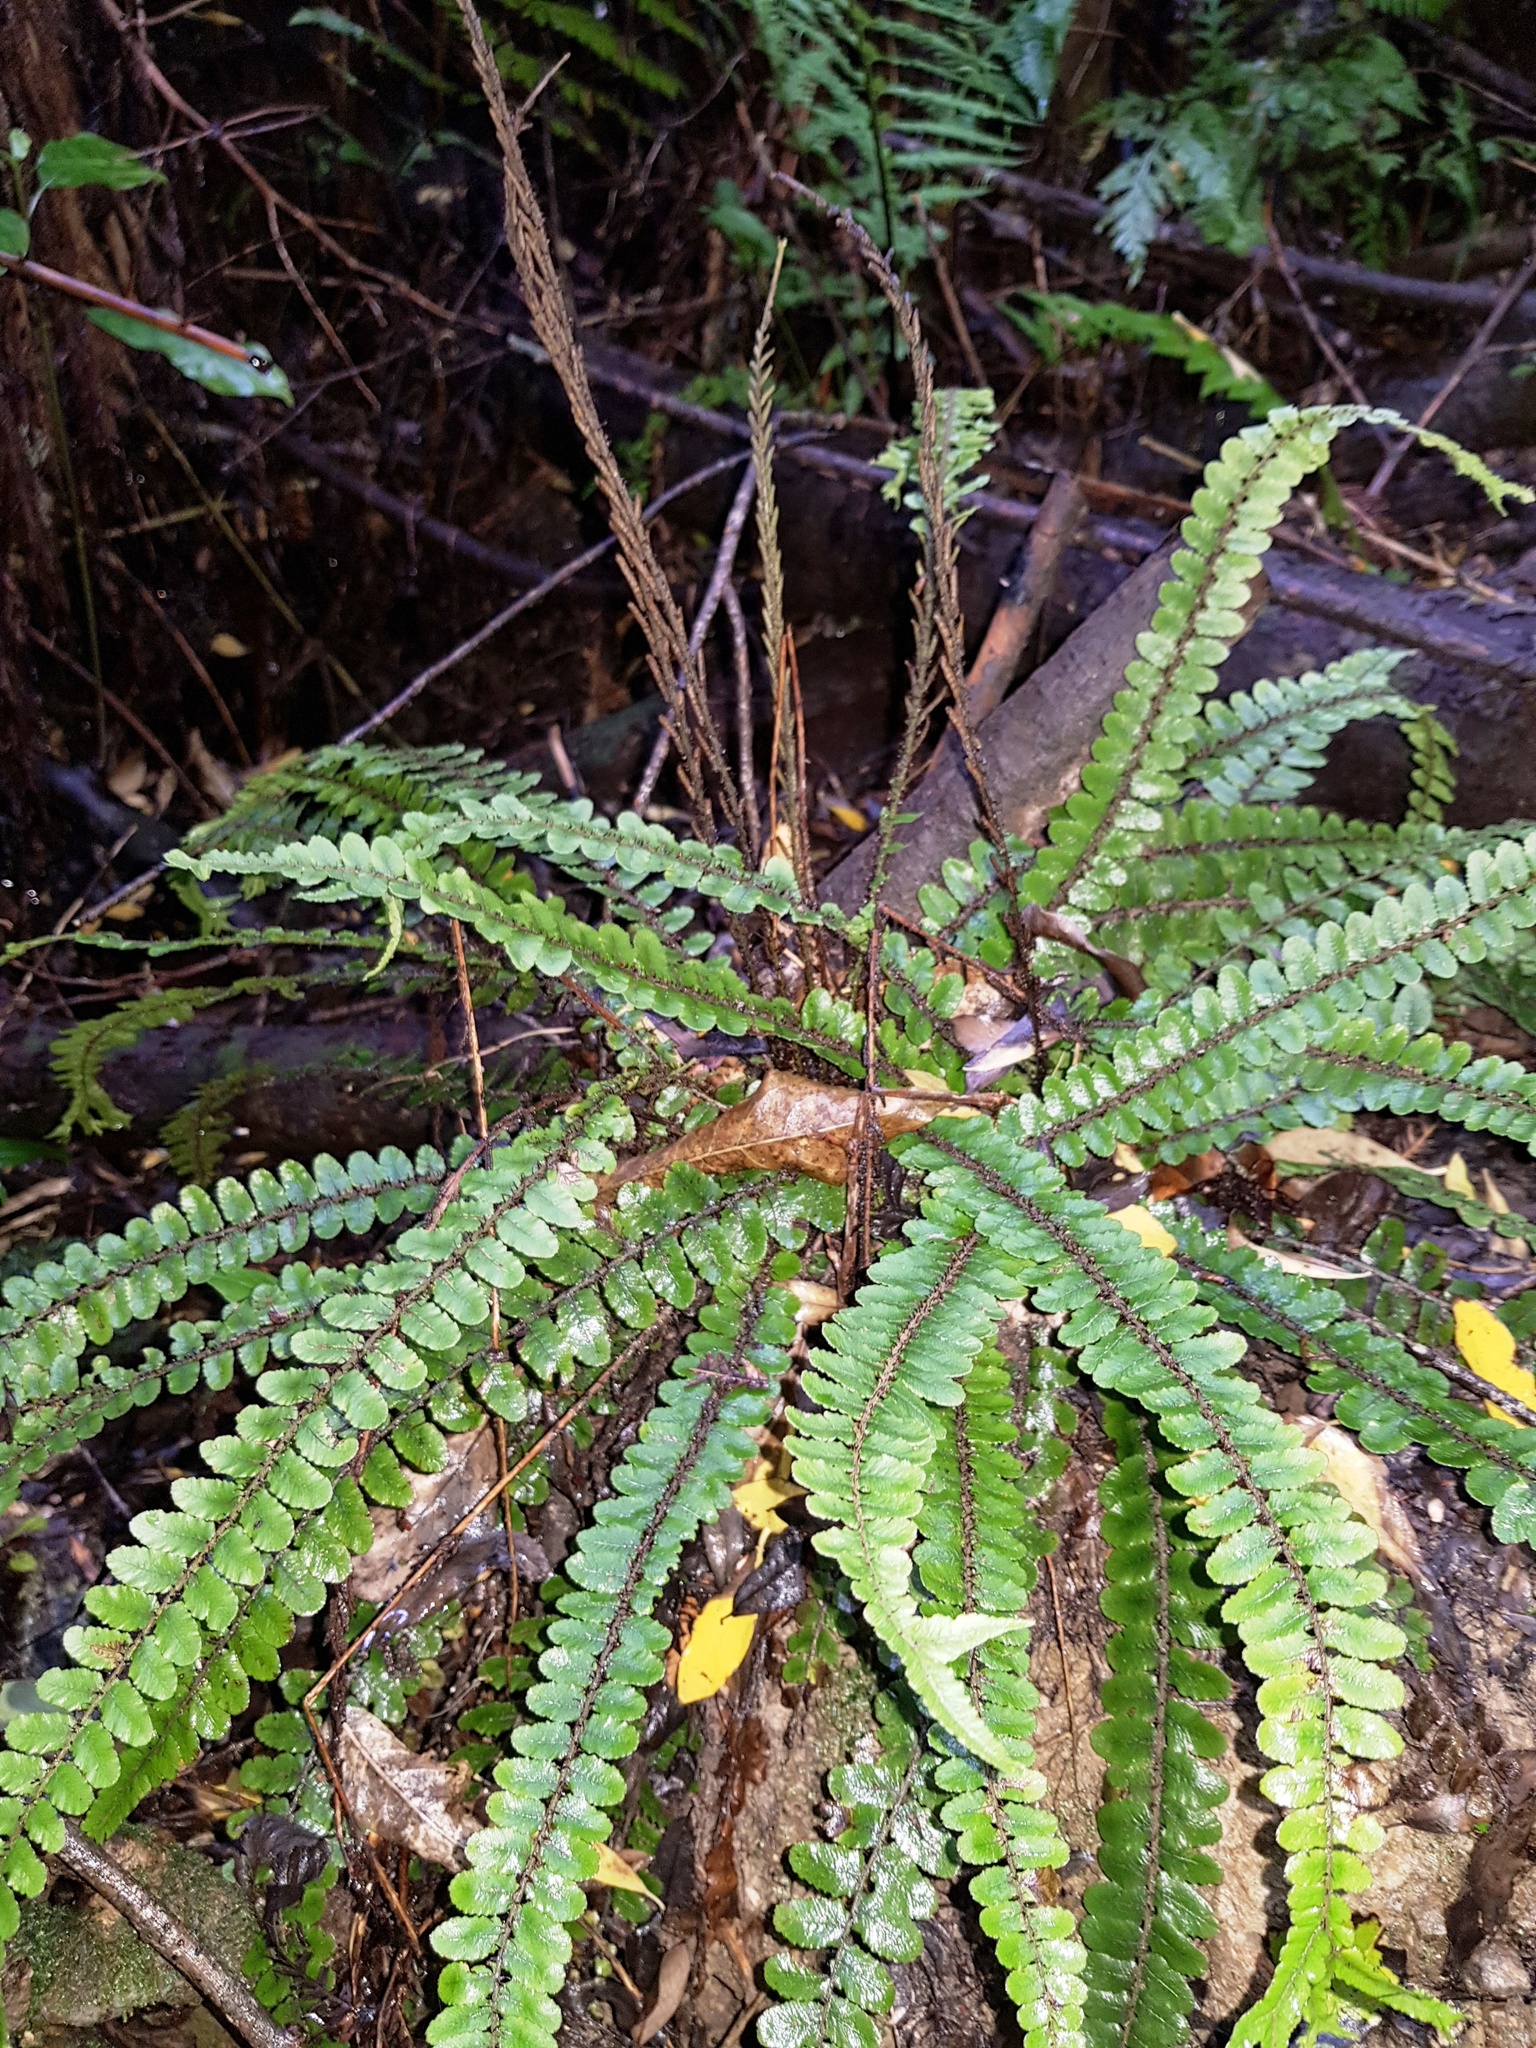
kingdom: Plantae
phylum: Tracheophyta
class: Polypodiopsida
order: Polypodiales
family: Blechnaceae
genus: Cranfillia
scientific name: Cranfillia fluviatilis
